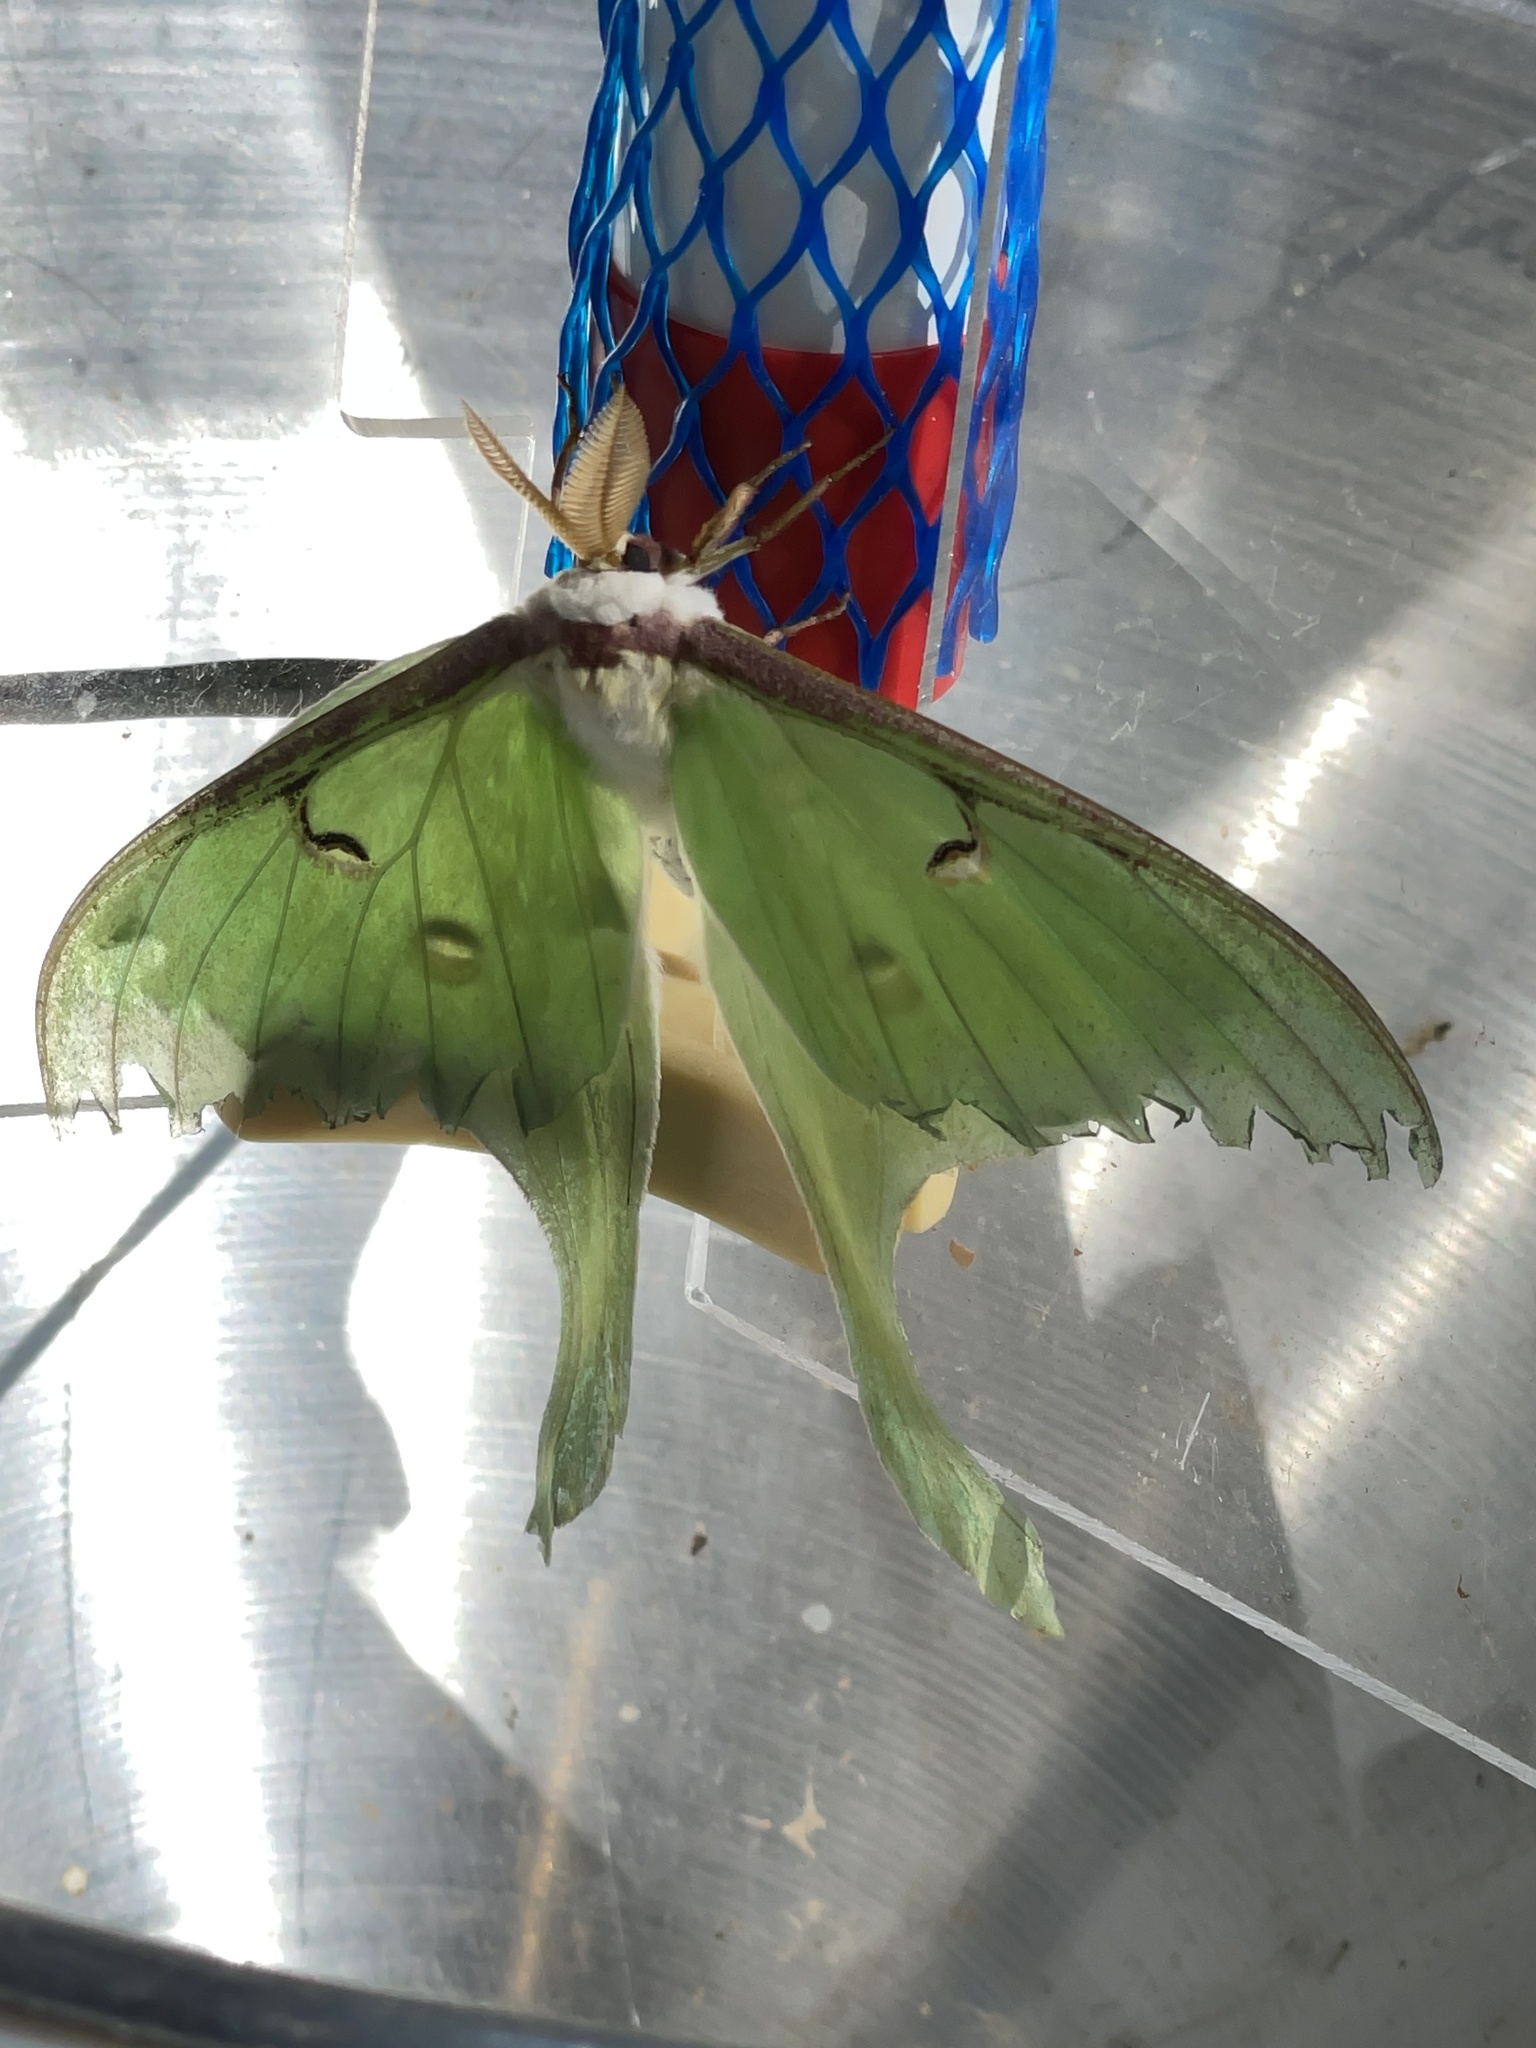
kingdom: Animalia
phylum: Arthropoda
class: Insecta
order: Lepidoptera
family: Saturniidae
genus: Actias
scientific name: Actias luna
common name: Luna moth
